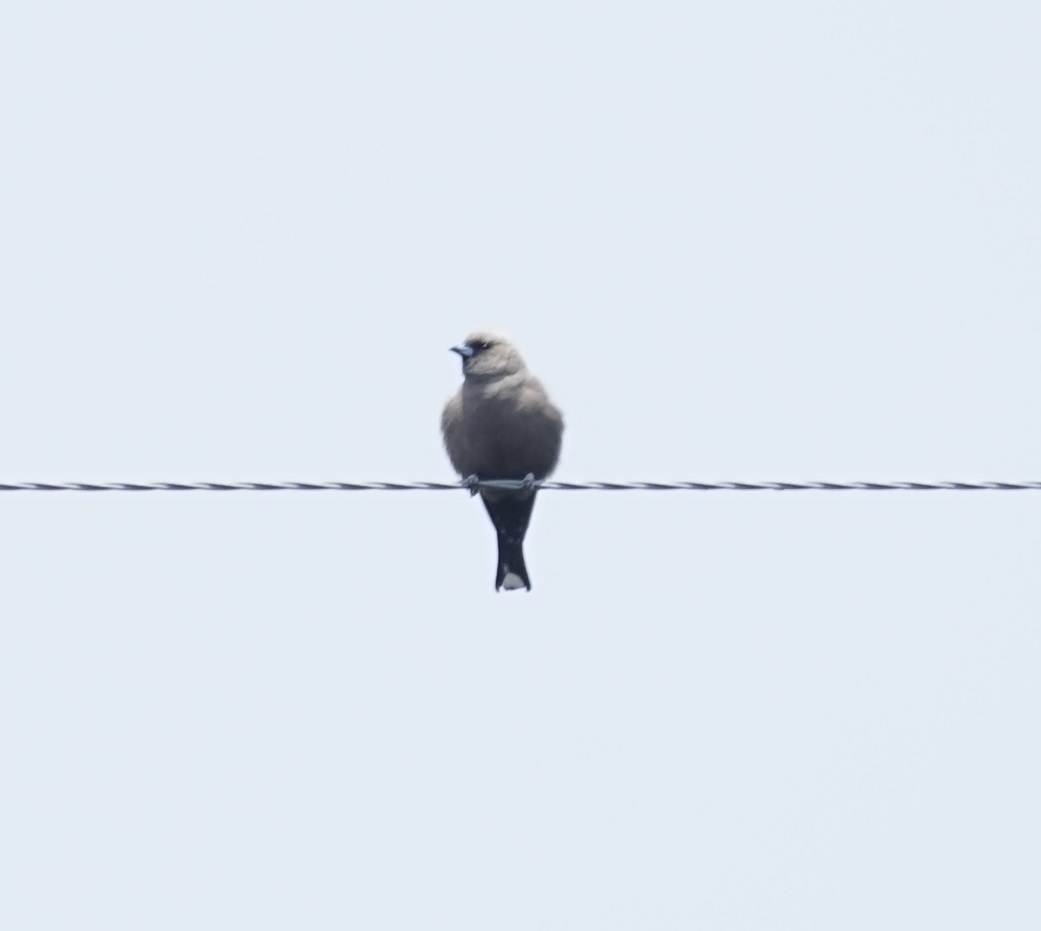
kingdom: Animalia
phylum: Chordata
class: Aves
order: Passeriformes
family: Artamidae
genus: Artamus
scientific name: Artamus cyanopterus
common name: Dusky woodswallow
